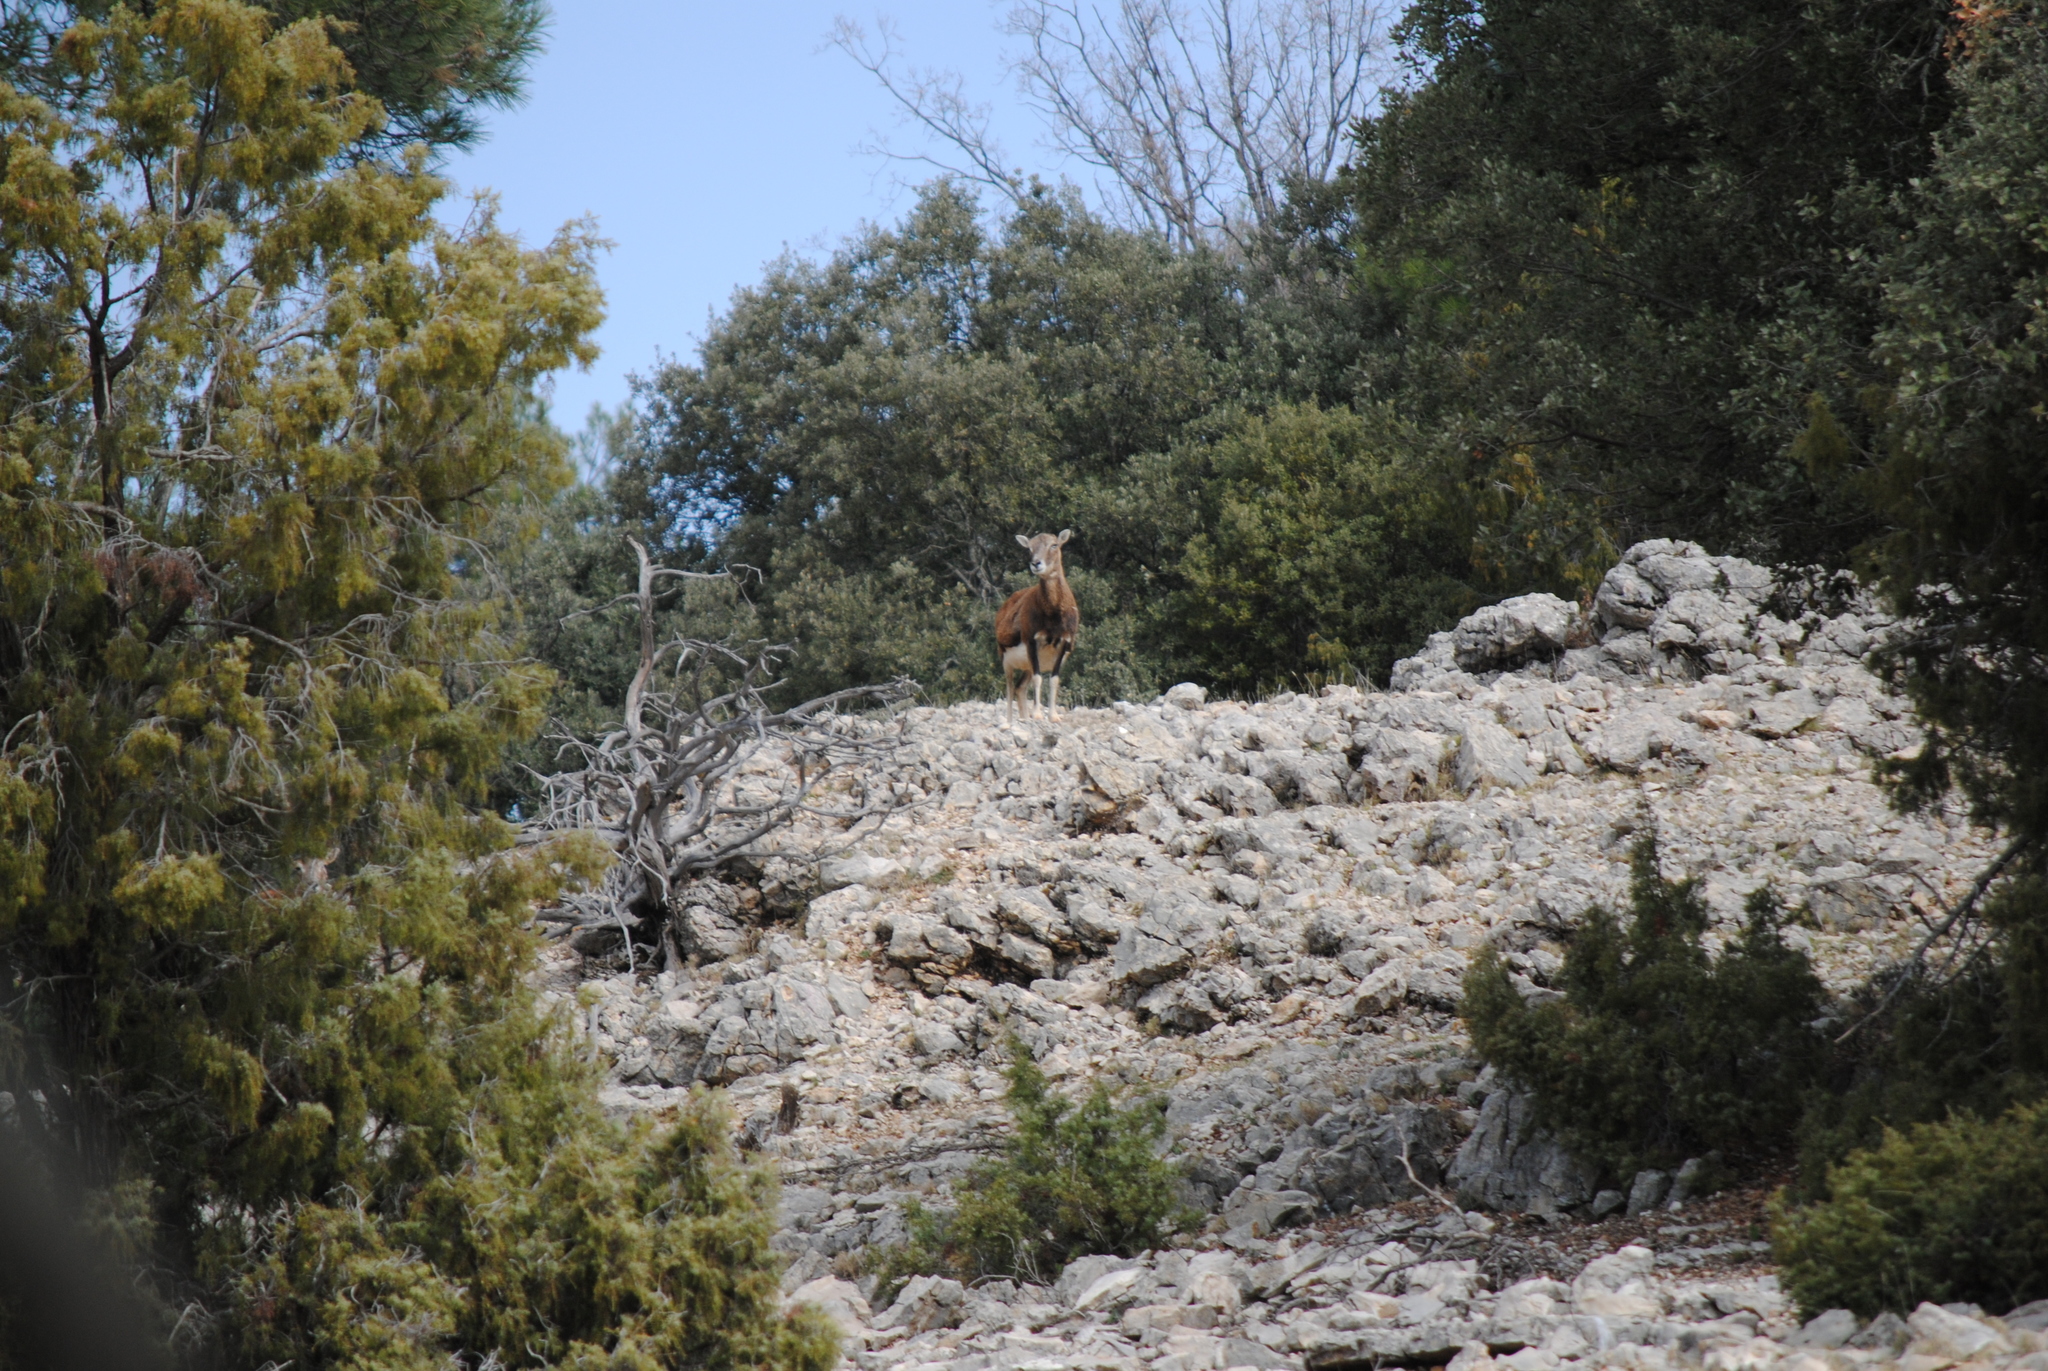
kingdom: Animalia
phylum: Chordata
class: Mammalia
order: Artiodactyla
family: Bovidae
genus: Ovis
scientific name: Ovis aries
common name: Domestic sheep
